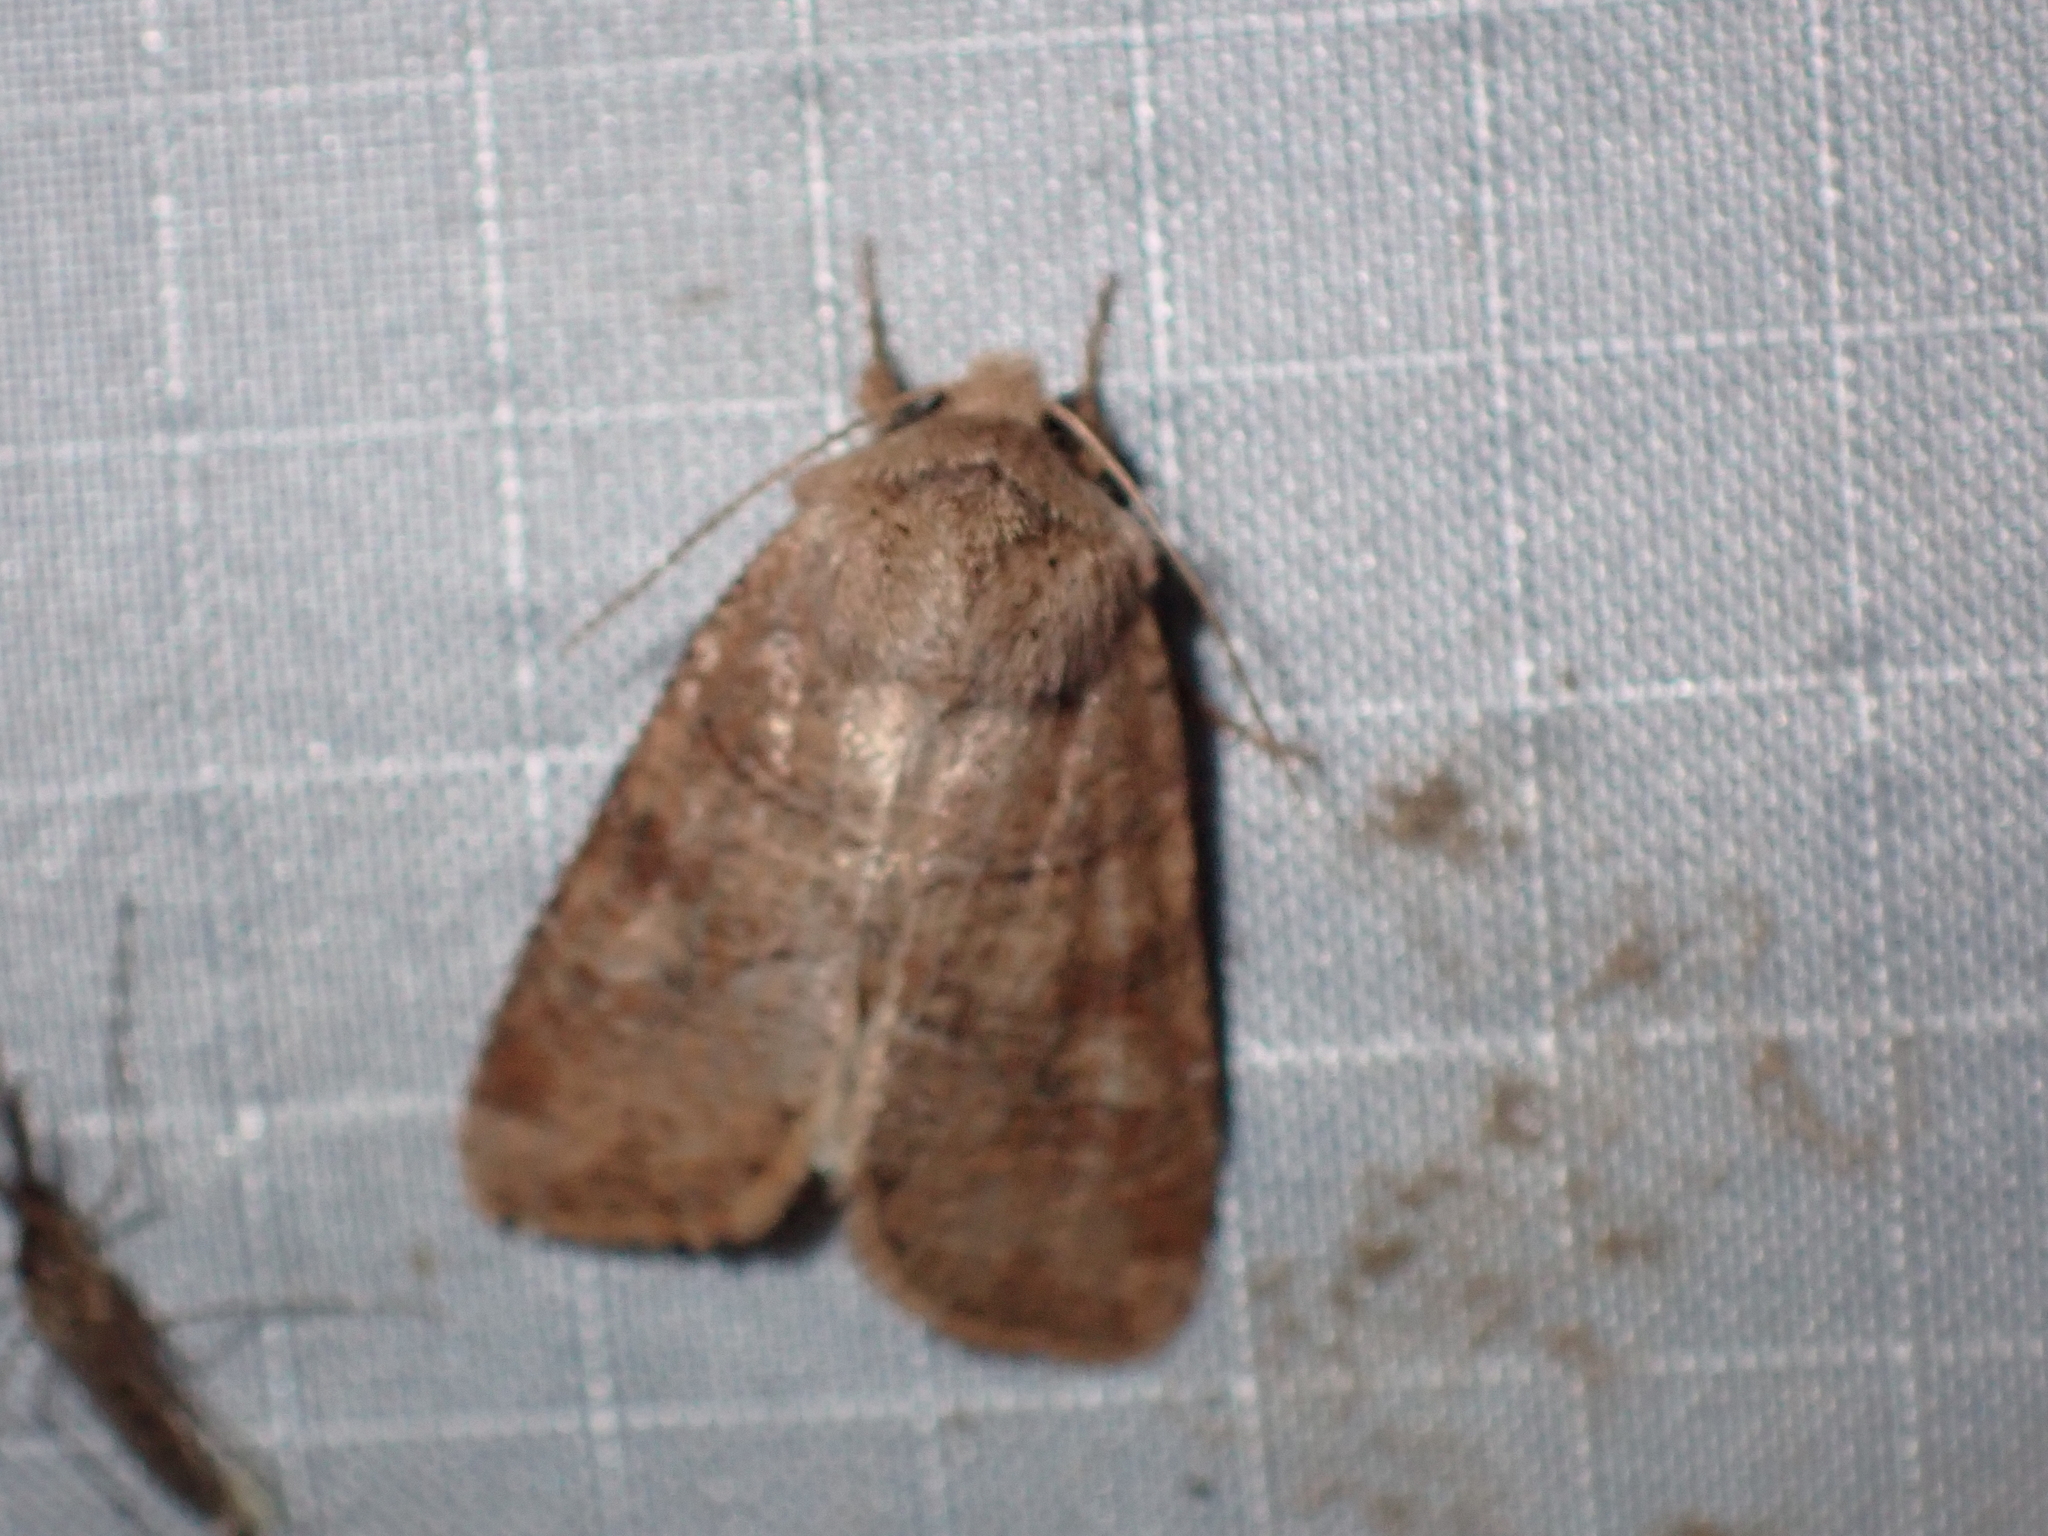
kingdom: Animalia
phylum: Arthropoda
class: Insecta
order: Lepidoptera
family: Noctuidae
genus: Crocigrapha
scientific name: Crocigrapha normani
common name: Norman's quaker
